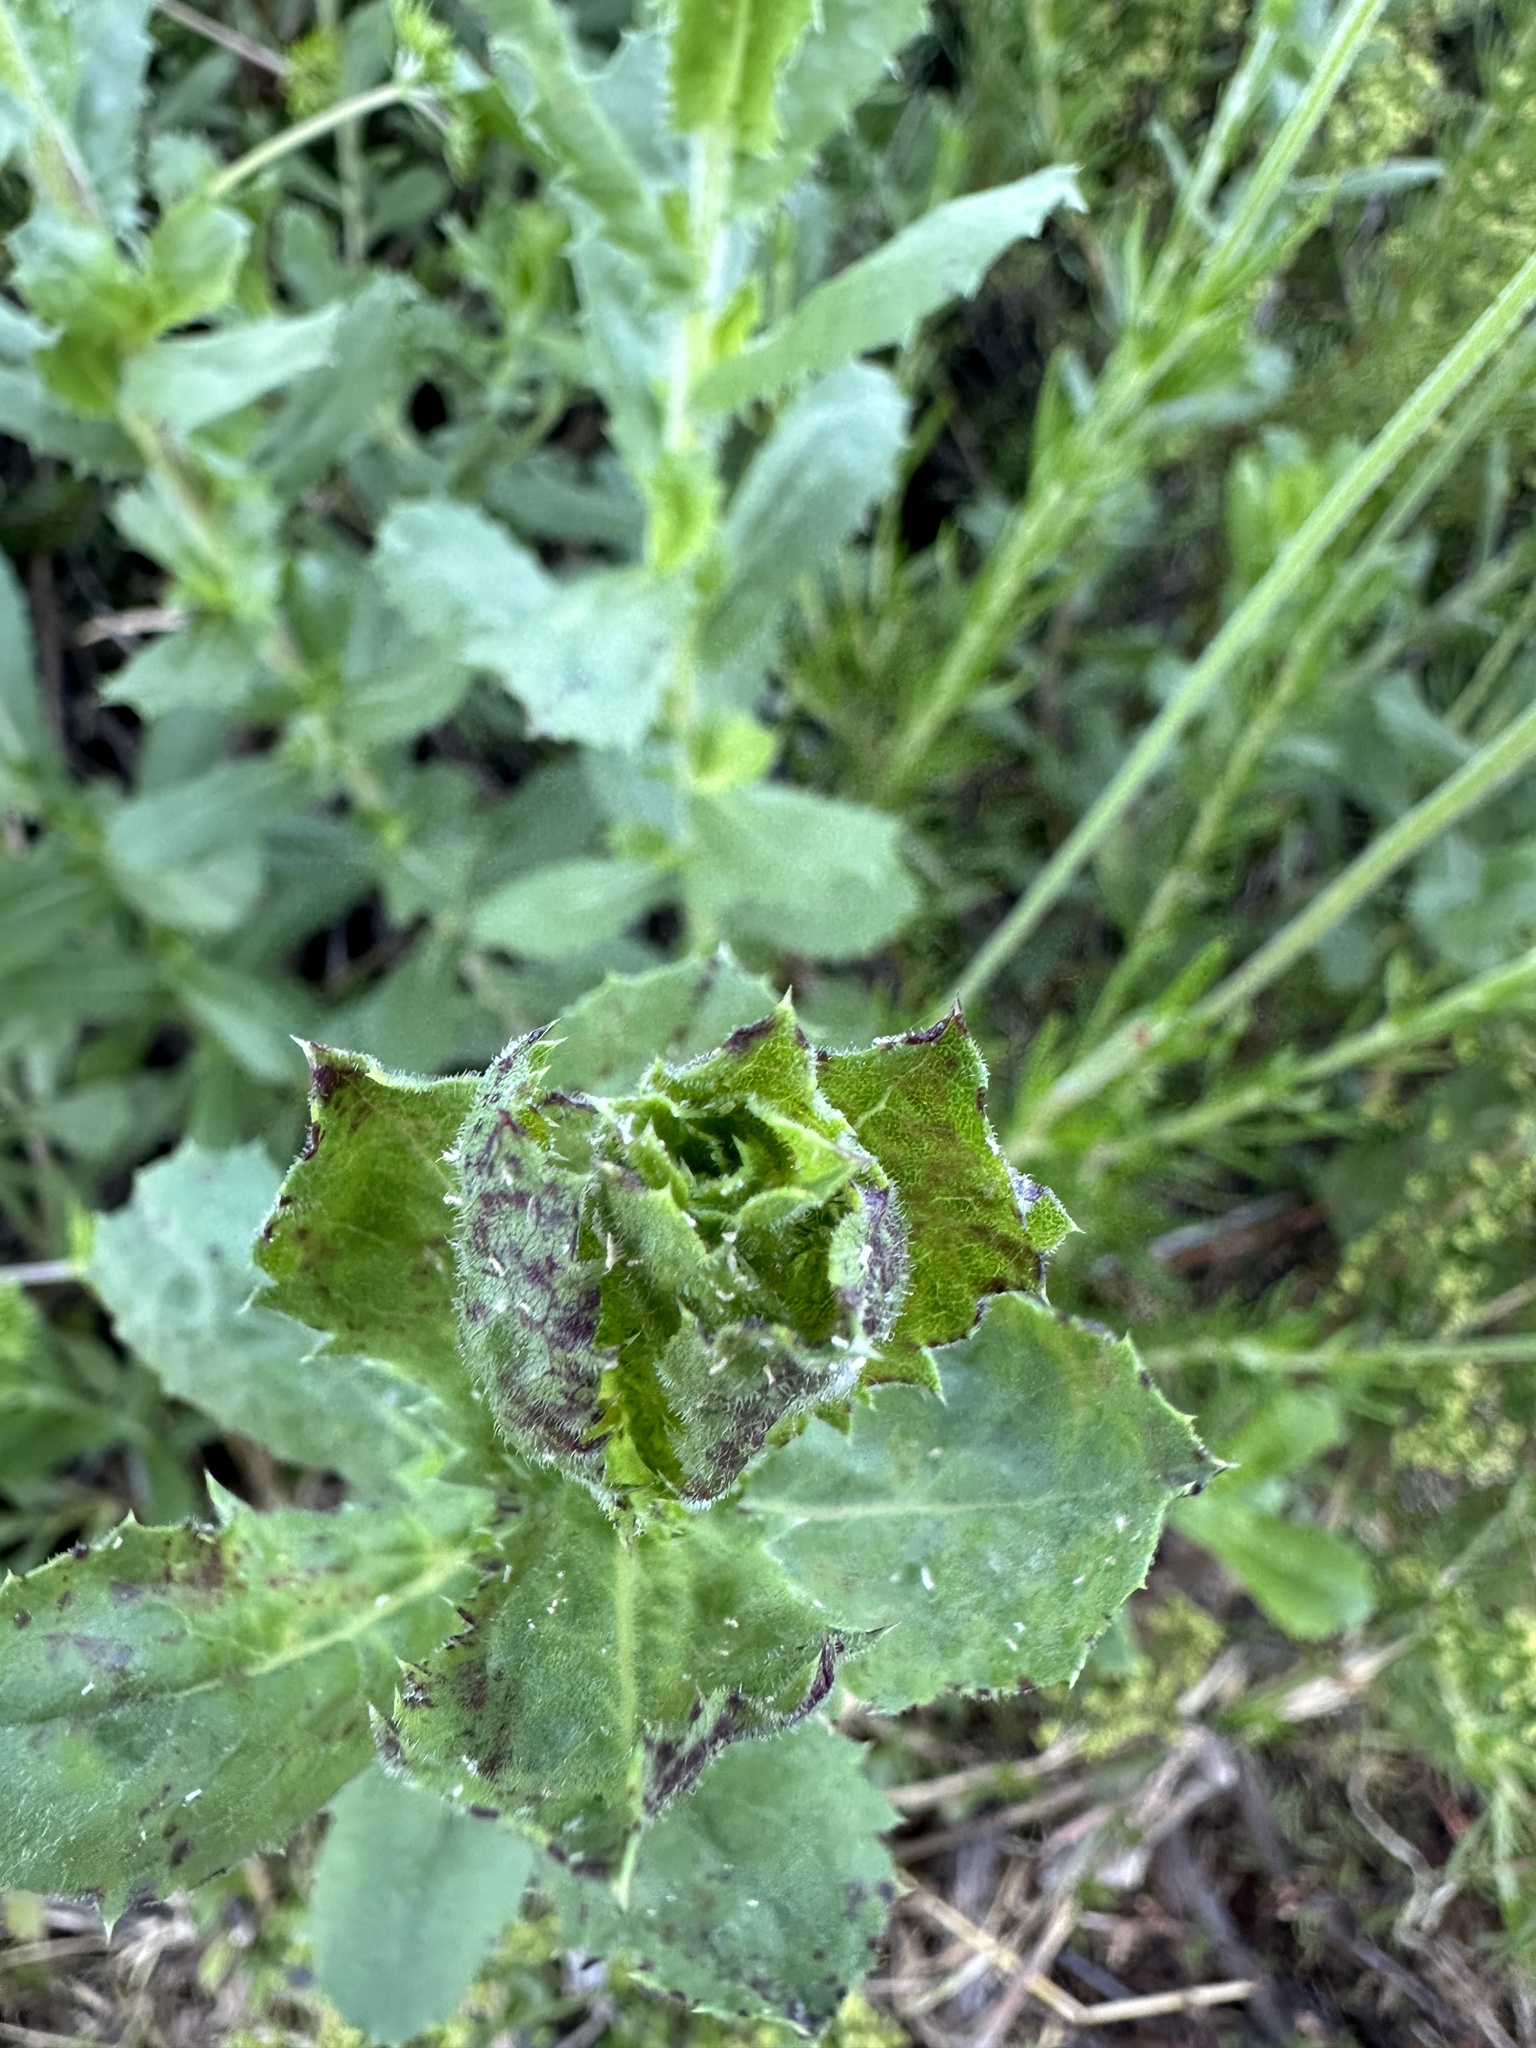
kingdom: Plantae
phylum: Tracheophyta
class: Magnoliopsida
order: Asterales
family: Asteraceae
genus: Hazardia
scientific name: Hazardia squarrosa
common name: Saw-tooth goldenbush
